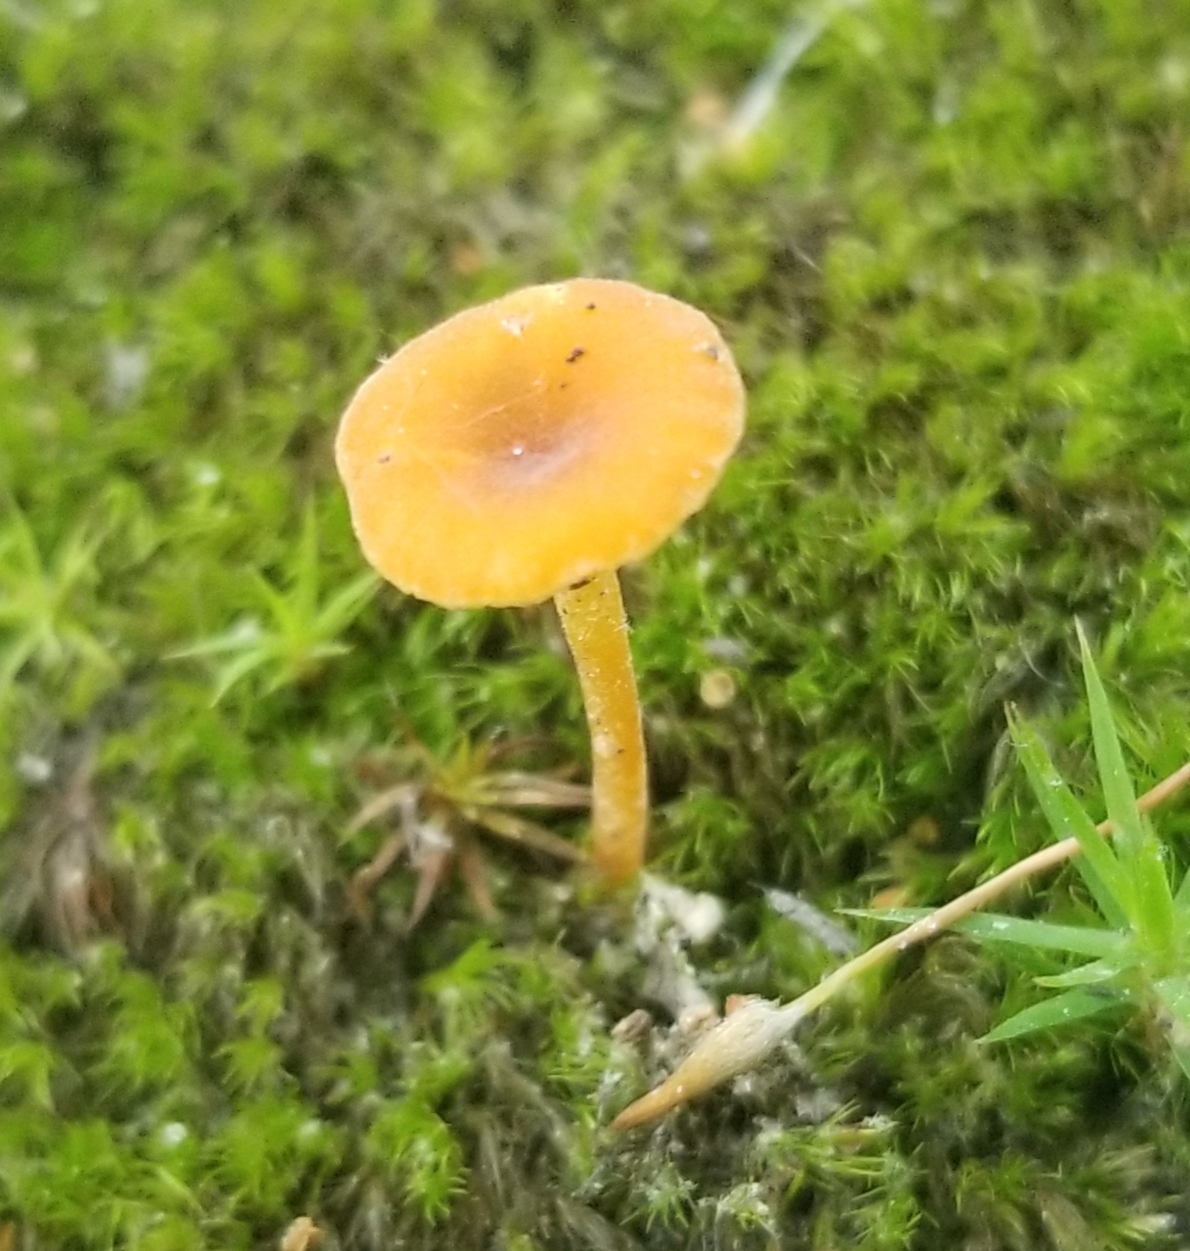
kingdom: Fungi
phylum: Basidiomycota
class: Agaricomycetes
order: Hymenochaetales
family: Rickenellaceae
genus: Rickenella
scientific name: Rickenella fibula
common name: Orange mosscap
